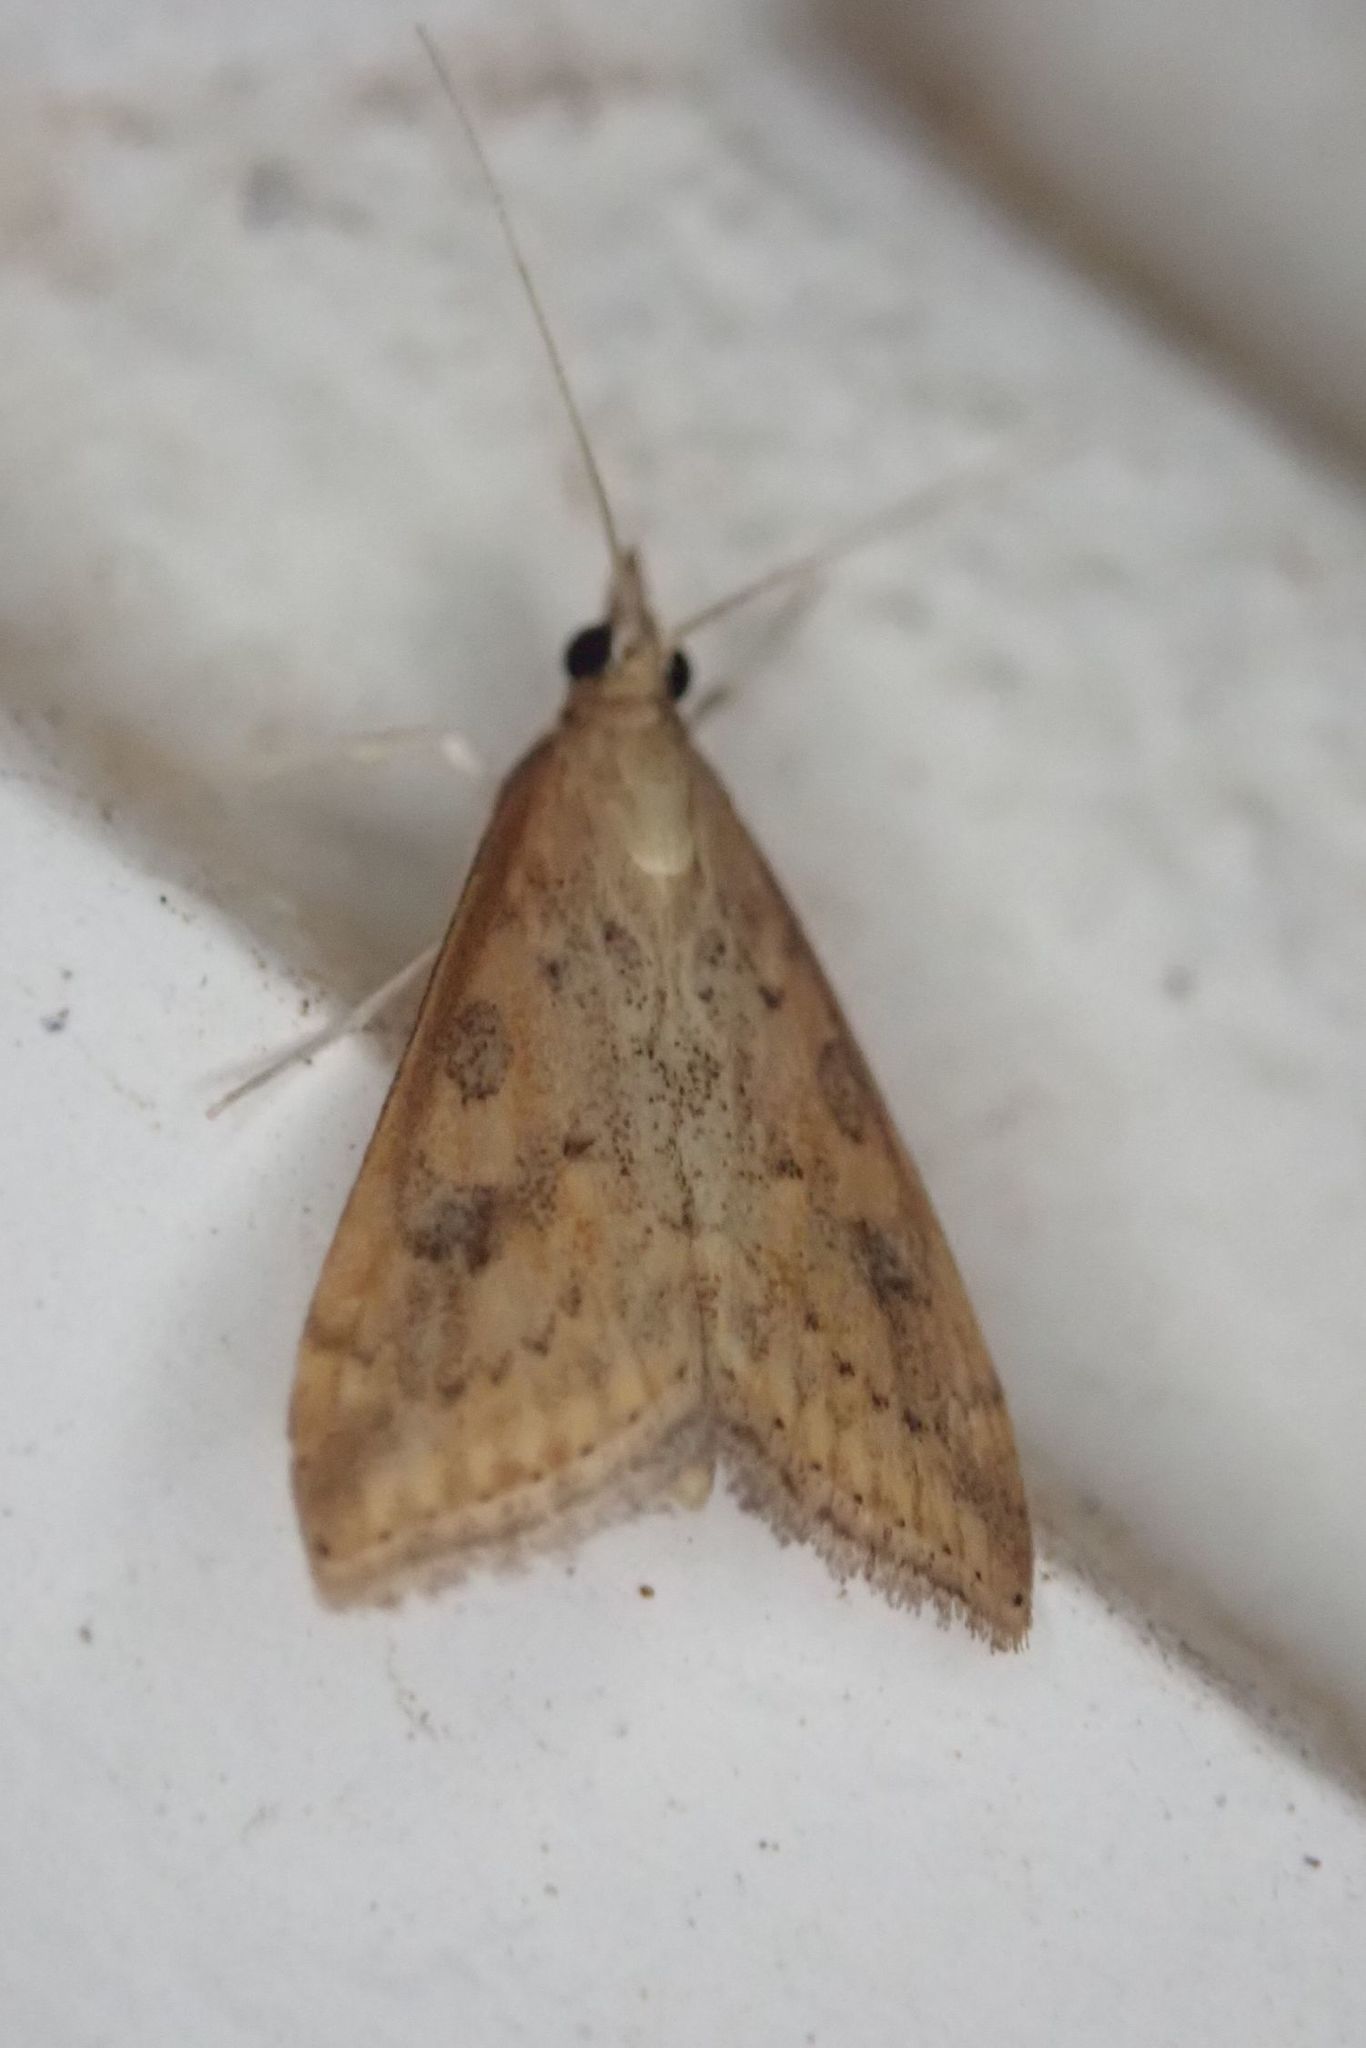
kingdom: Animalia
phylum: Arthropoda
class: Insecta
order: Lepidoptera
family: Crambidae
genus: Udea
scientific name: Udea ferrugalis
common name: Rusty dot
